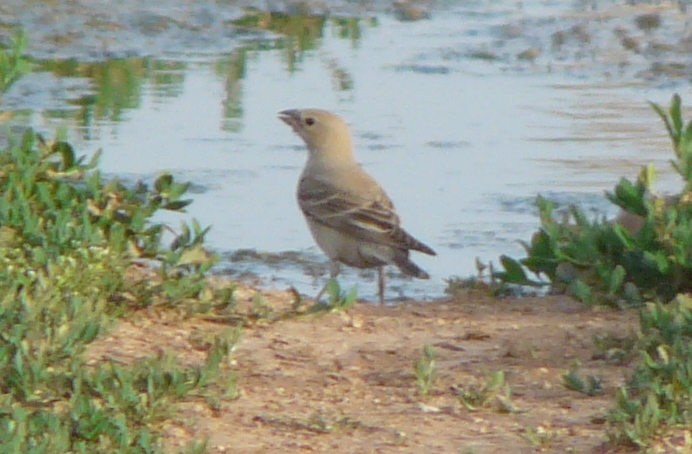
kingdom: Animalia
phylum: Chordata
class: Aves
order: Passeriformes
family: Passeridae
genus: Carpospiza
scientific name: Carpospiza brachydactyla
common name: Pale rockfinch
